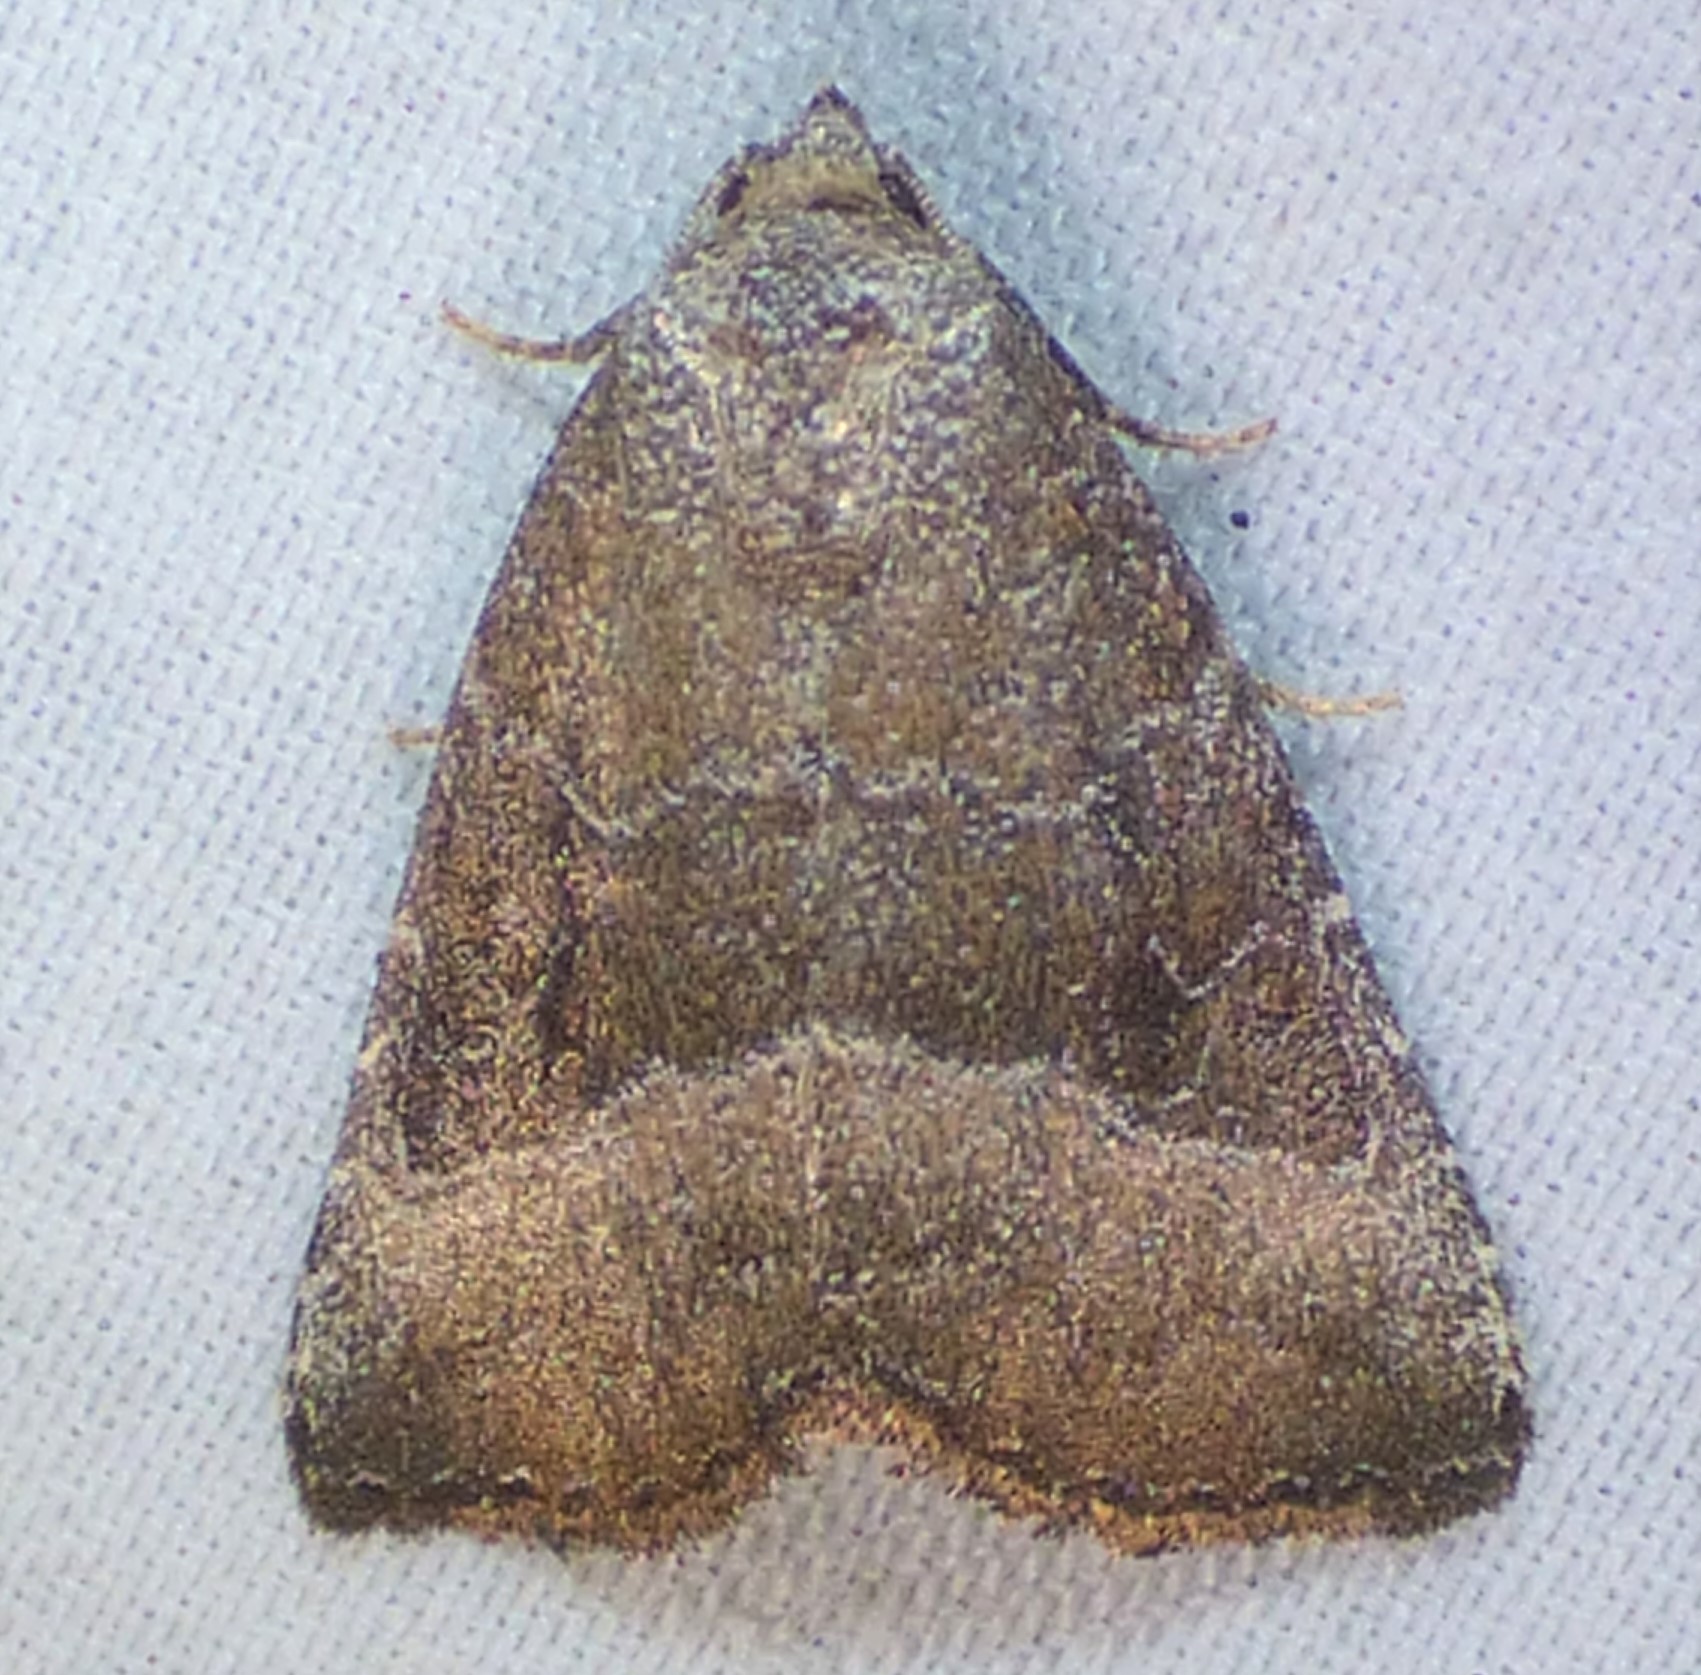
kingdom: Animalia
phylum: Arthropoda
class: Insecta
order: Lepidoptera
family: Noctuidae
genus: Ogdoconta
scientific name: Ogdoconta cinereola
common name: Common pinkband
